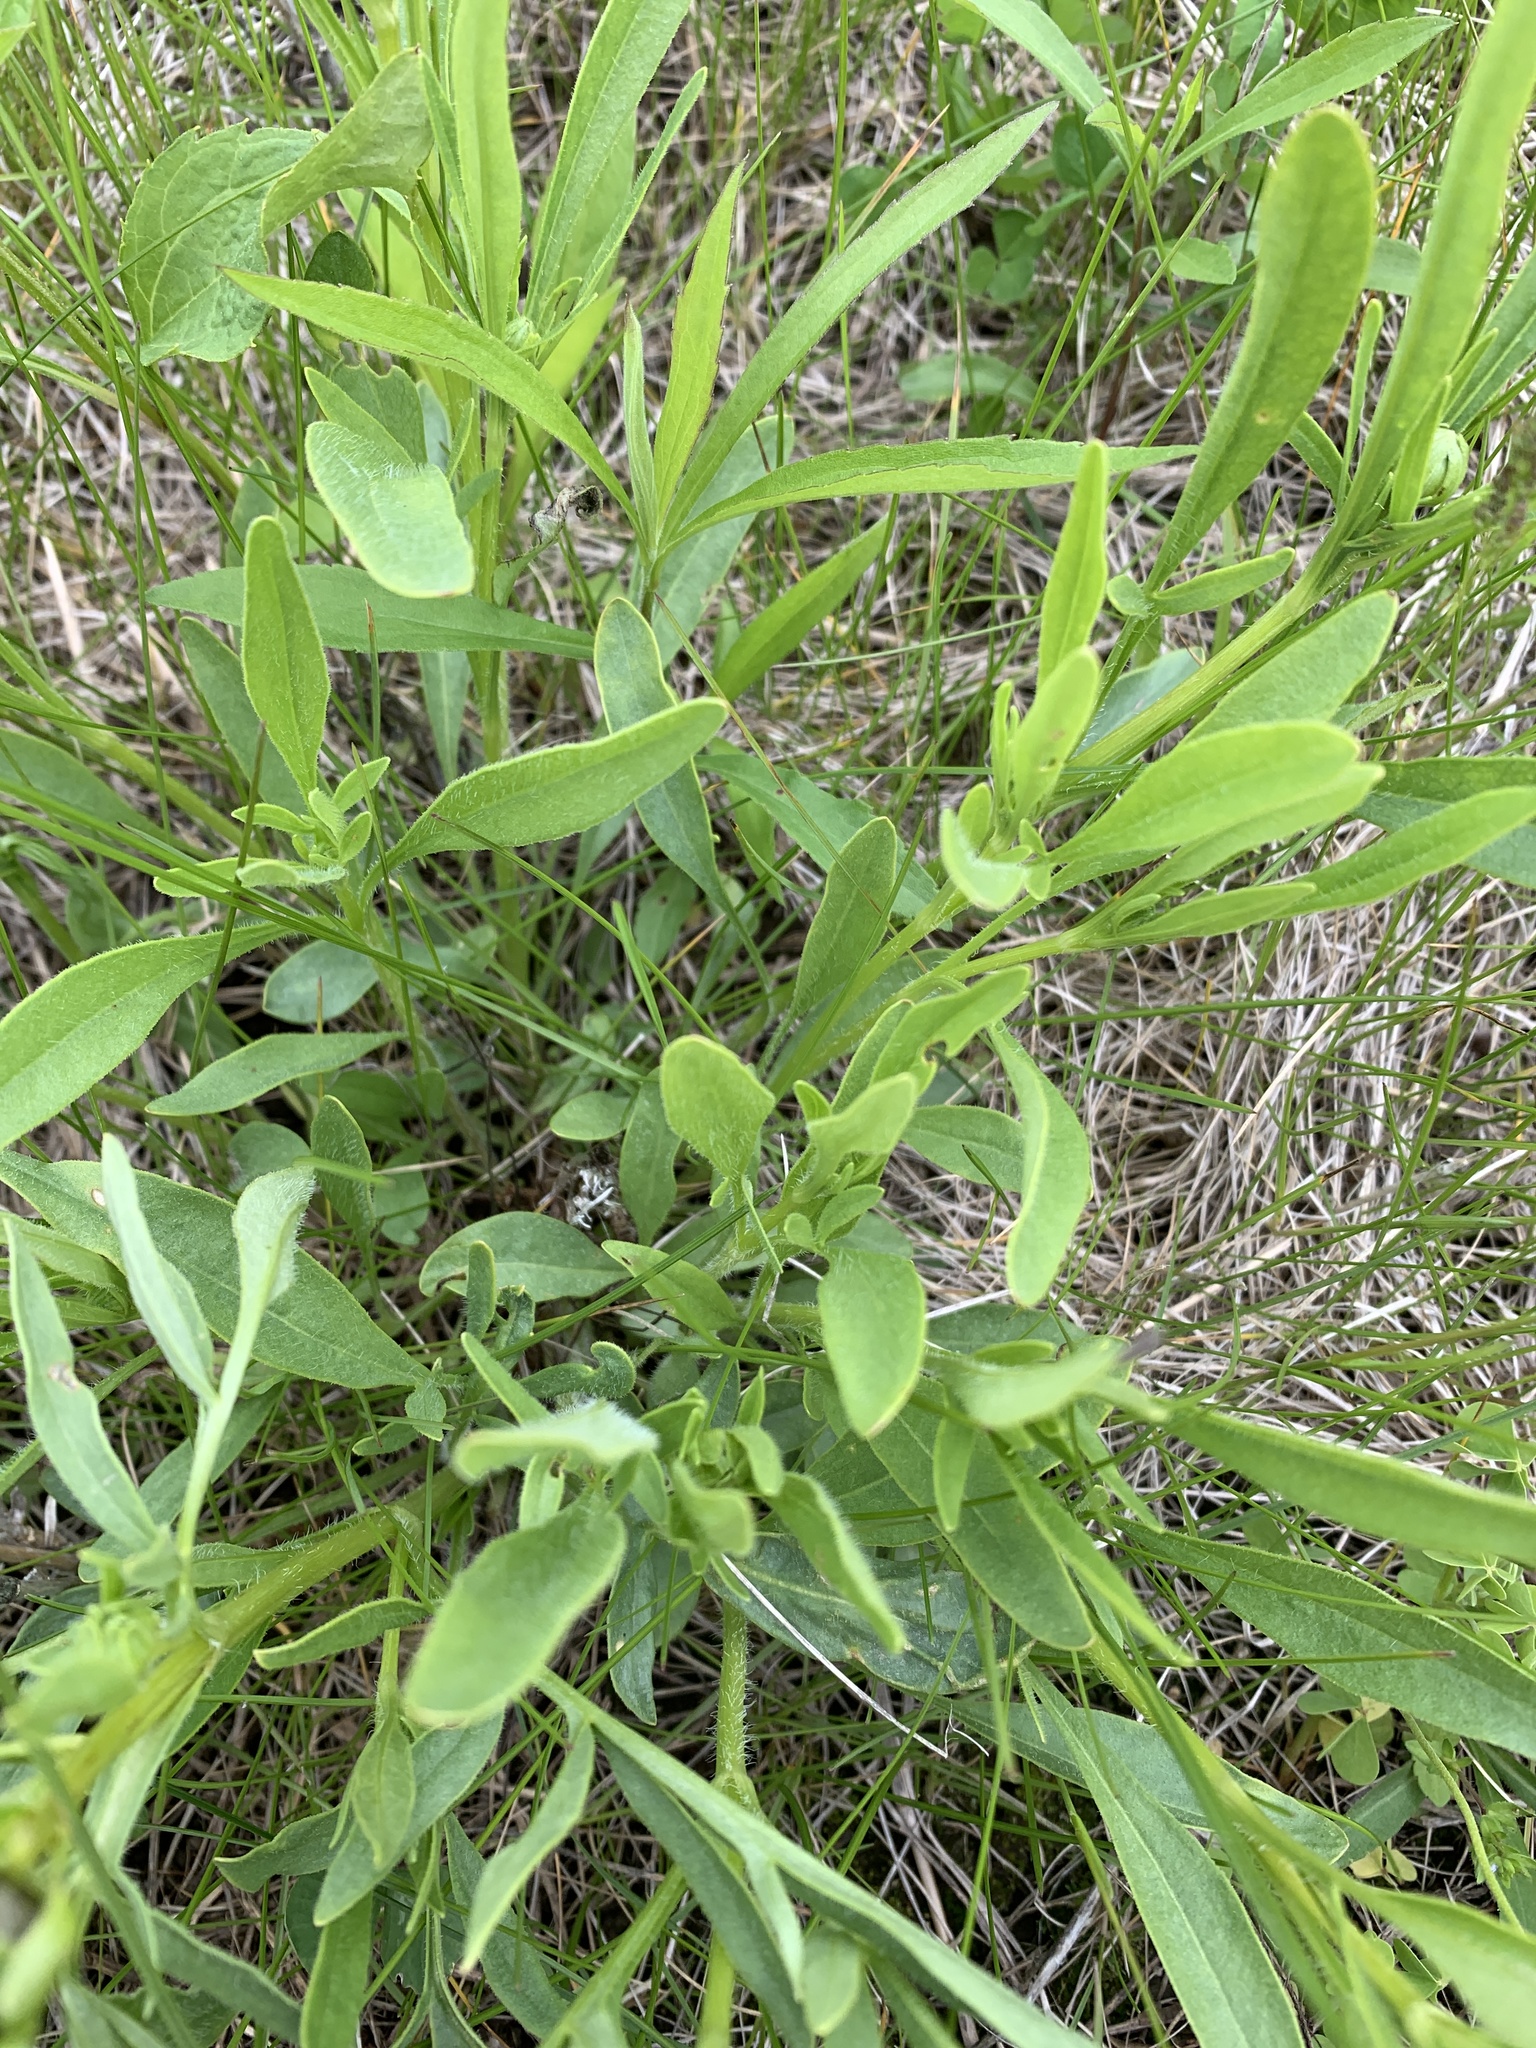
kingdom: Plantae
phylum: Tracheophyta
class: Magnoliopsida
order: Asterales
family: Asteraceae
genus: Coreopsis
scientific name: Coreopsis lanceolata
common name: Garden coreopsis
